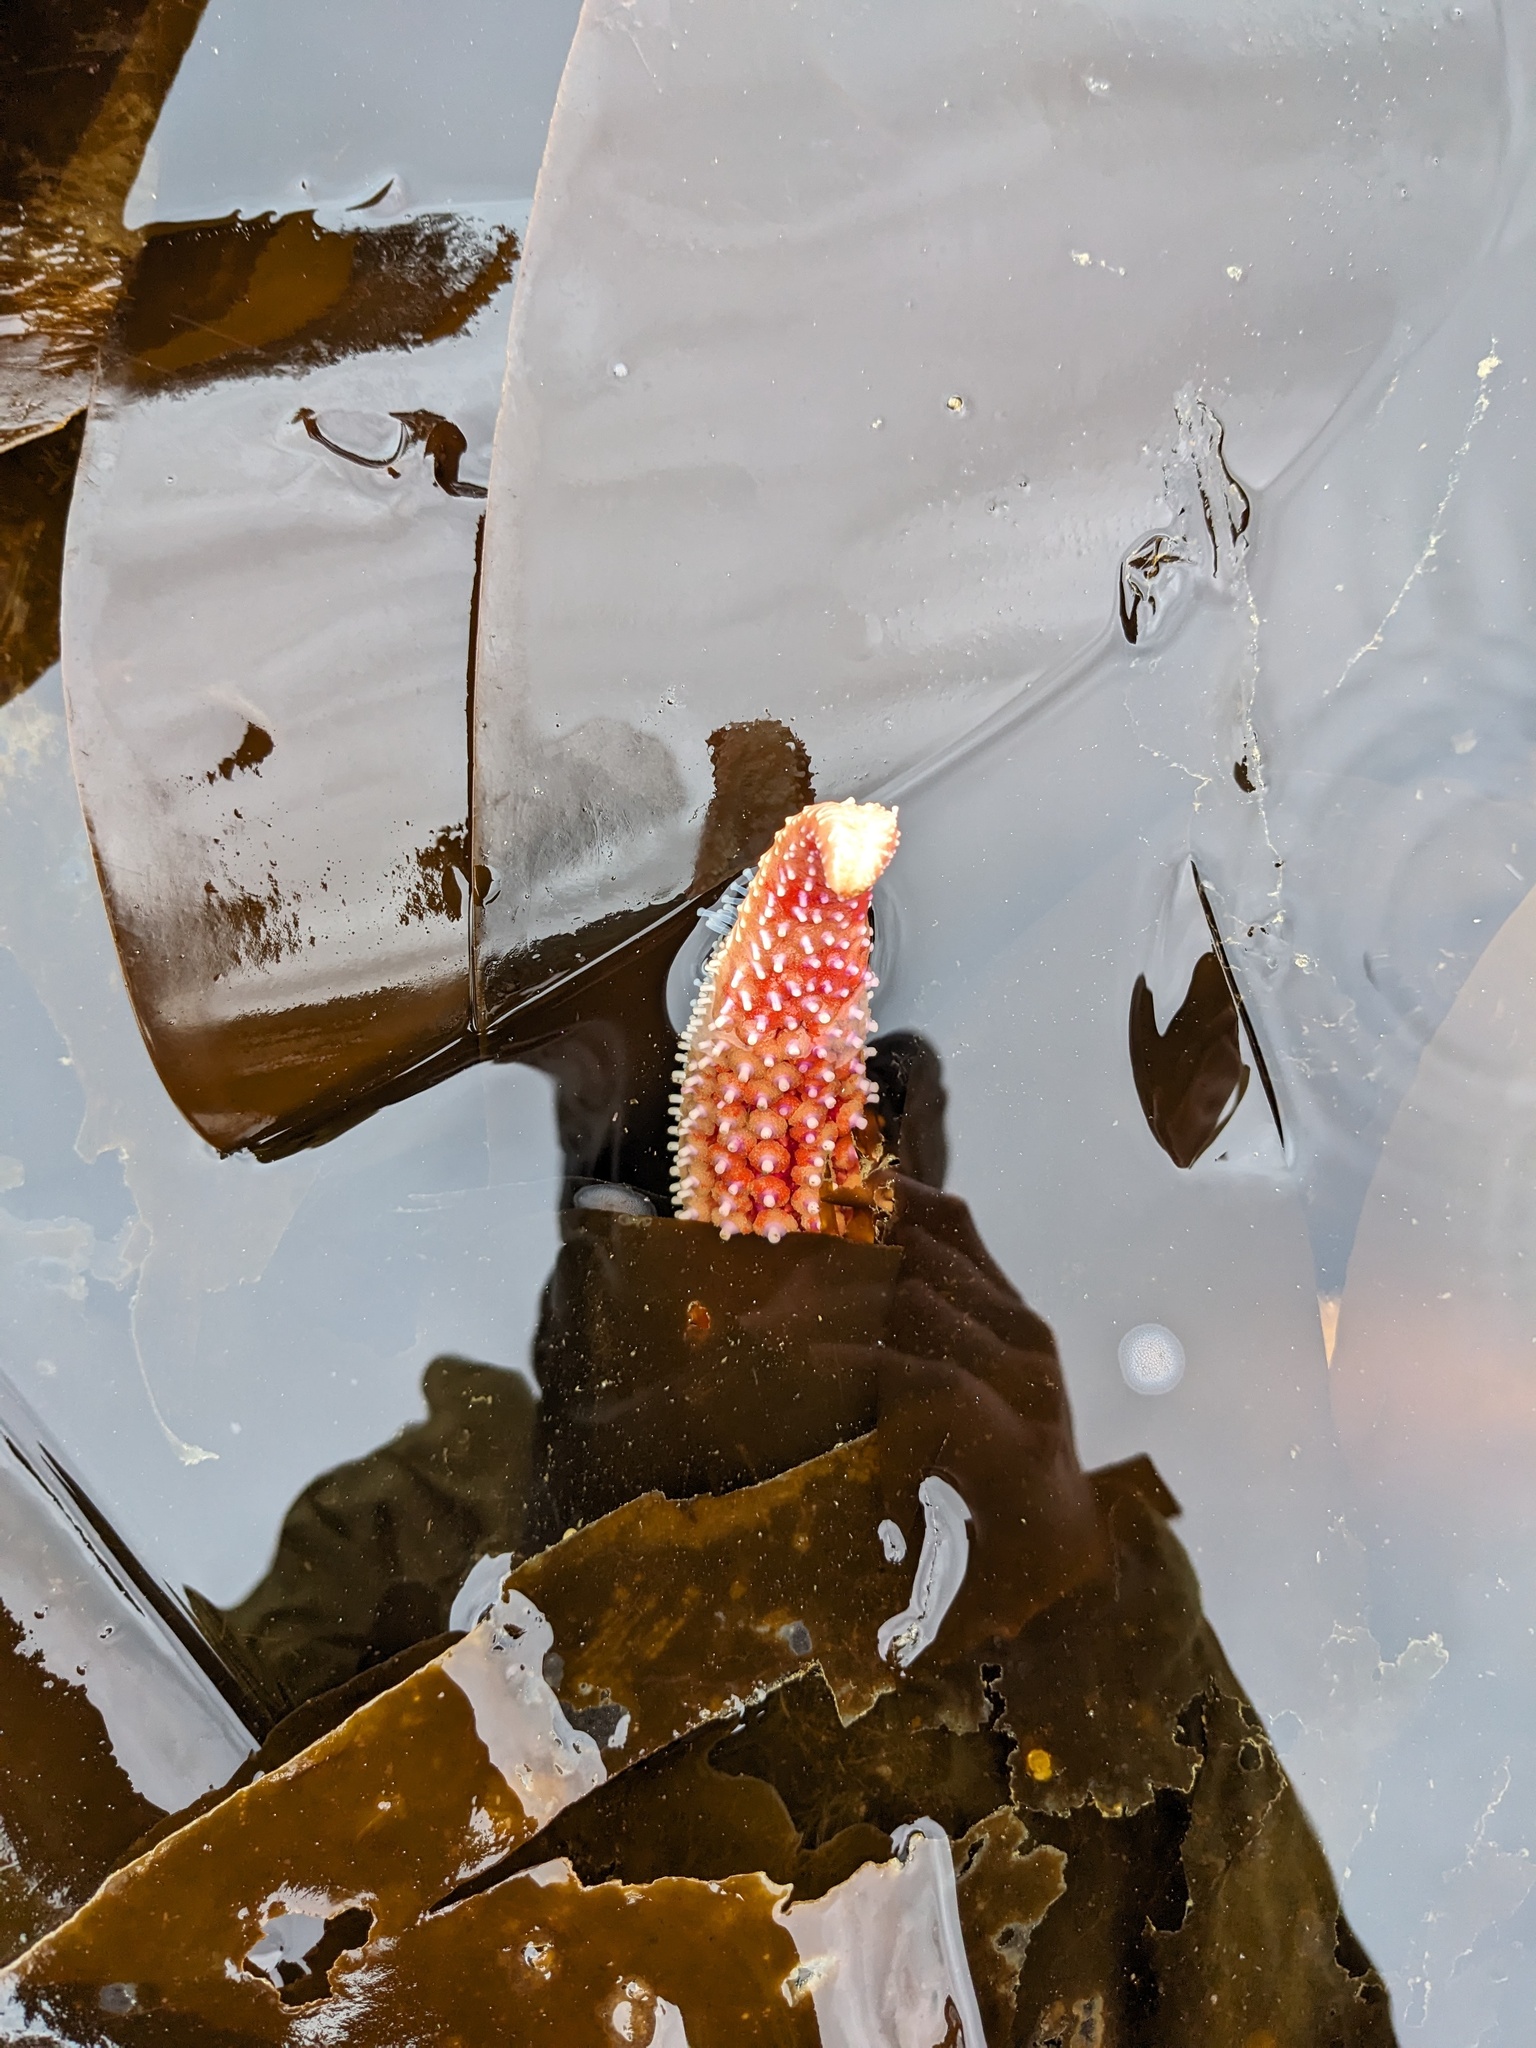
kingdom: Animalia
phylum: Echinodermata
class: Asteroidea
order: Forcipulatida
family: Asteriidae
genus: Orthasterias
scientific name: Orthasterias koehleri
